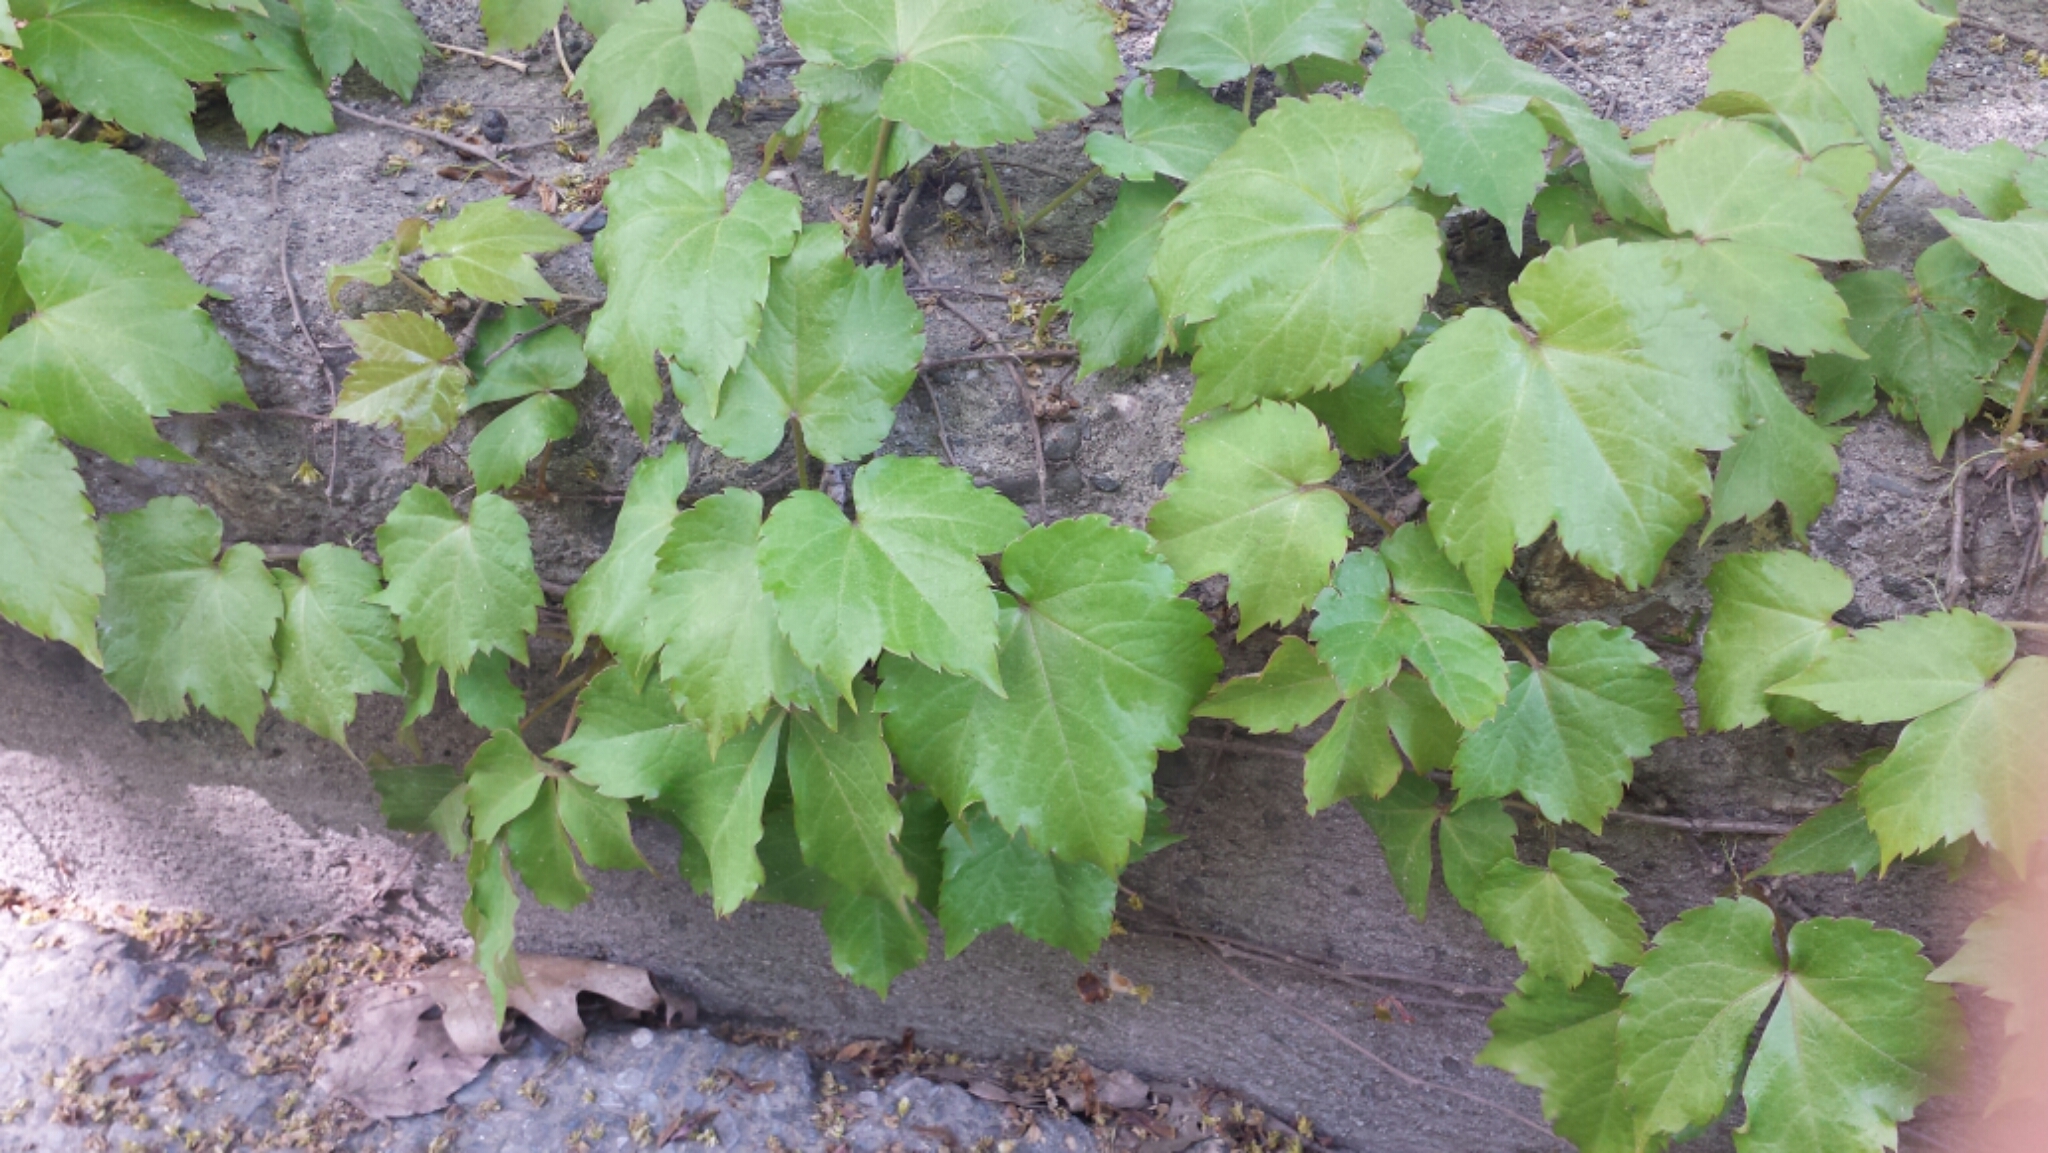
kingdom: Plantae
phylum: Tracheophyta
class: Magnoliopsida
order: Vitales
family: Vitaceae
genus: Parthenocissus
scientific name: Parthenocissus tricuspidata
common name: Boston ivy
